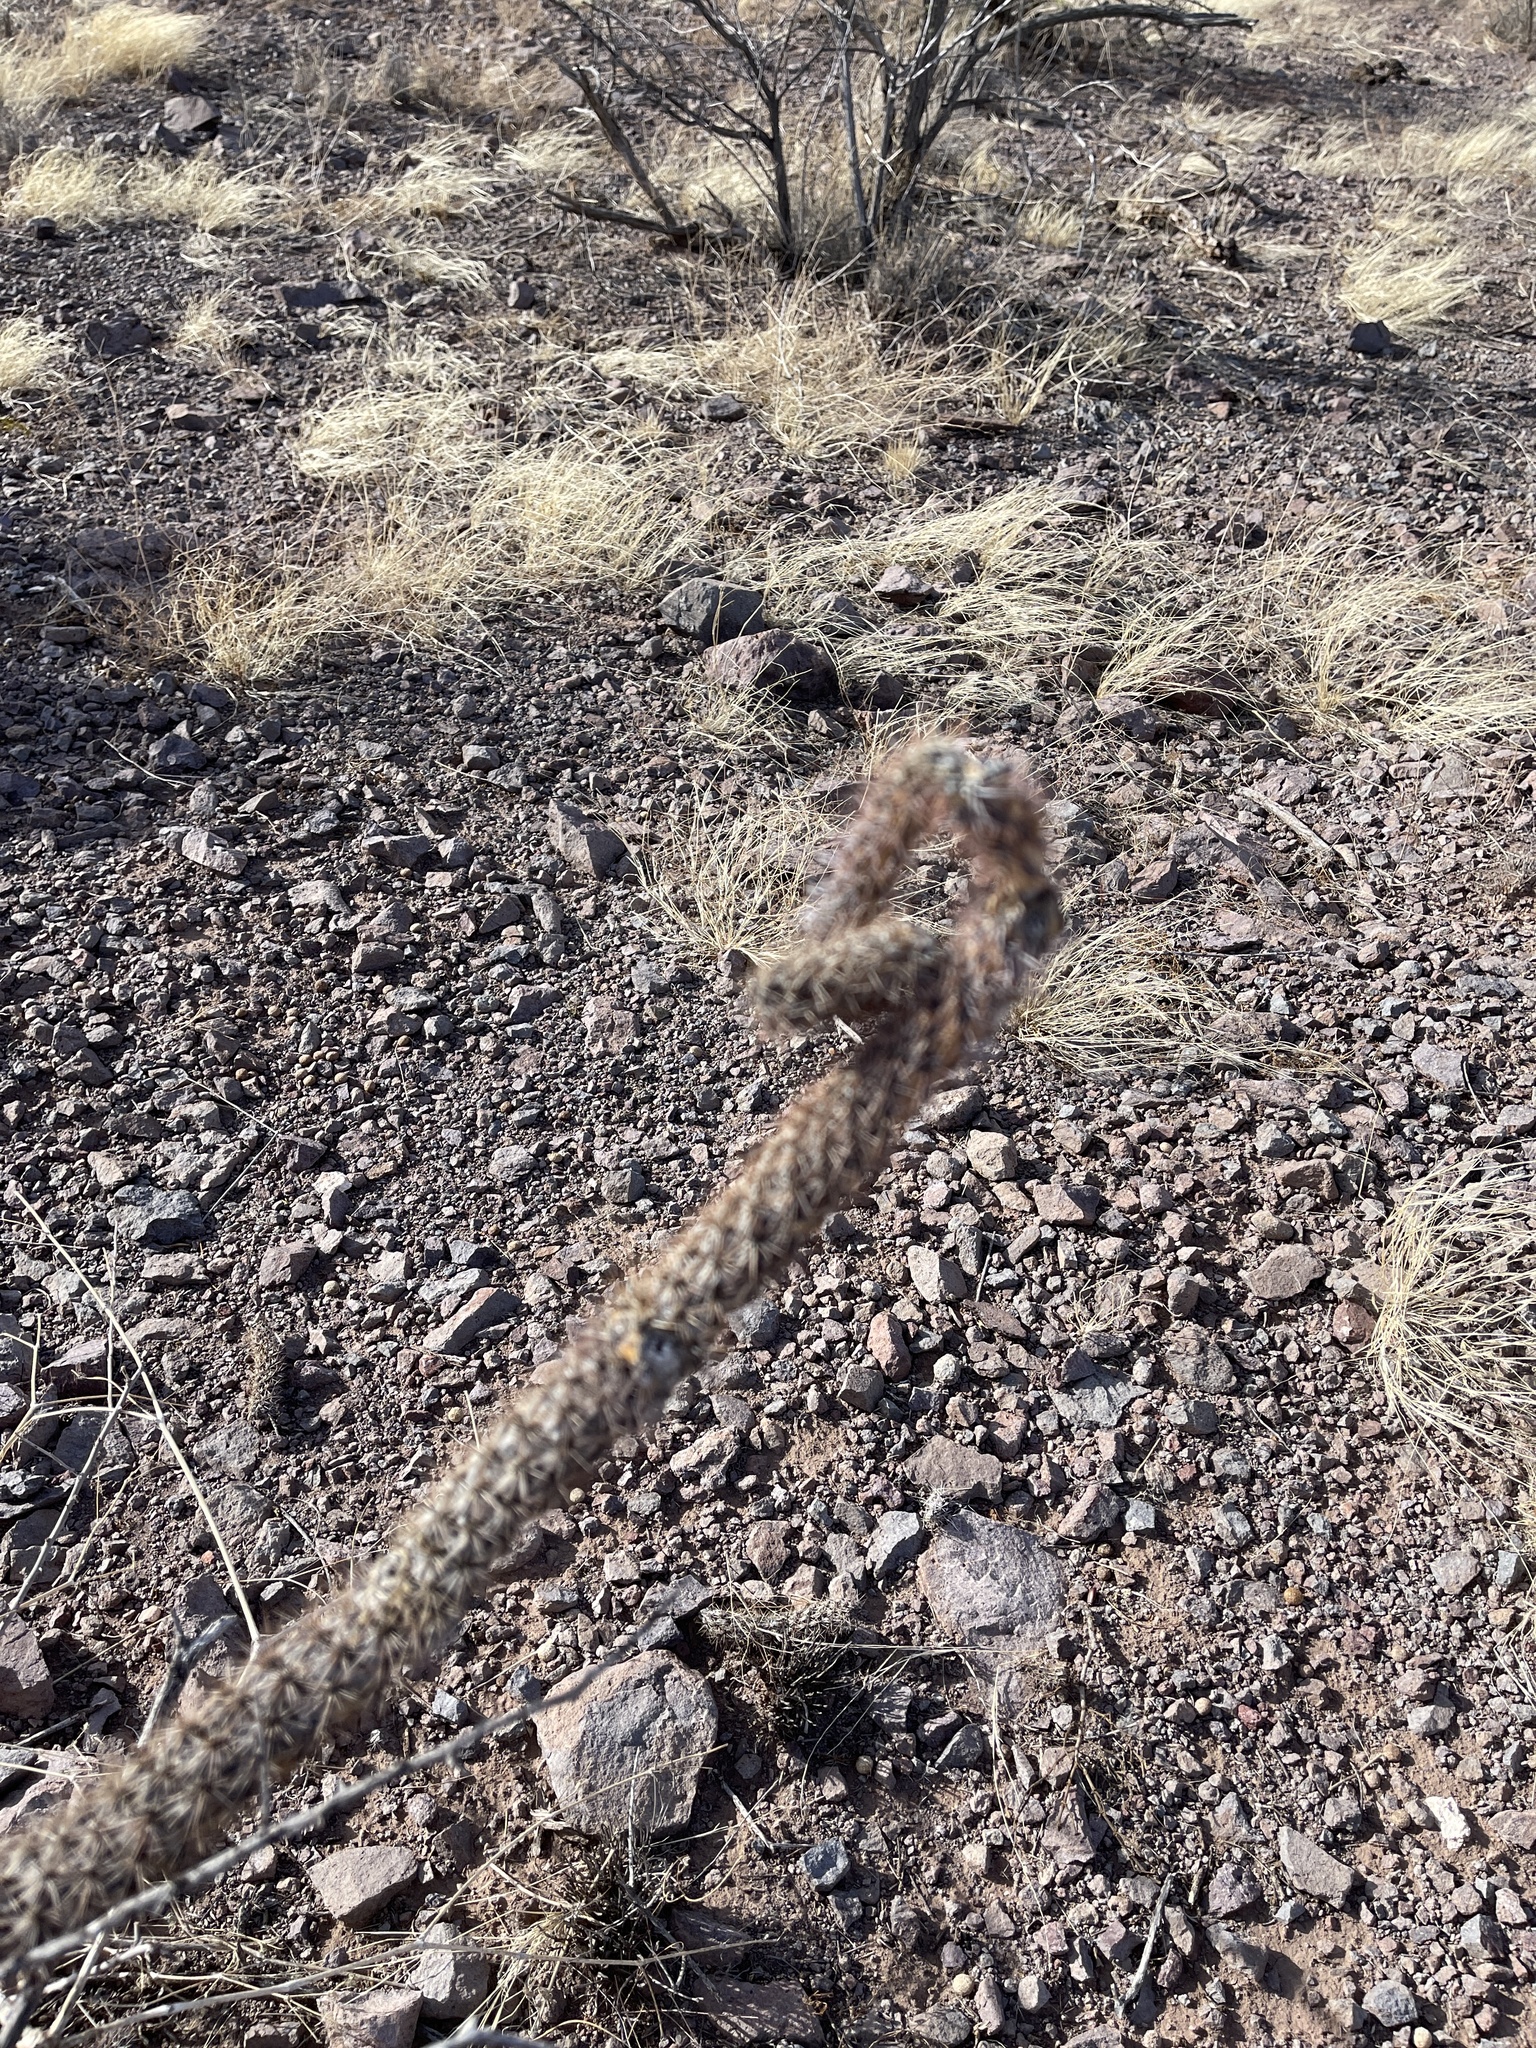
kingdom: Plantae
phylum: Tracheophyta
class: Magnoliopsida
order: Caryophyllales
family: Cactaceae
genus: Cylindropuntia
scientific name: Cylindropuntia imbricata
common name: Candelabrum cactus
